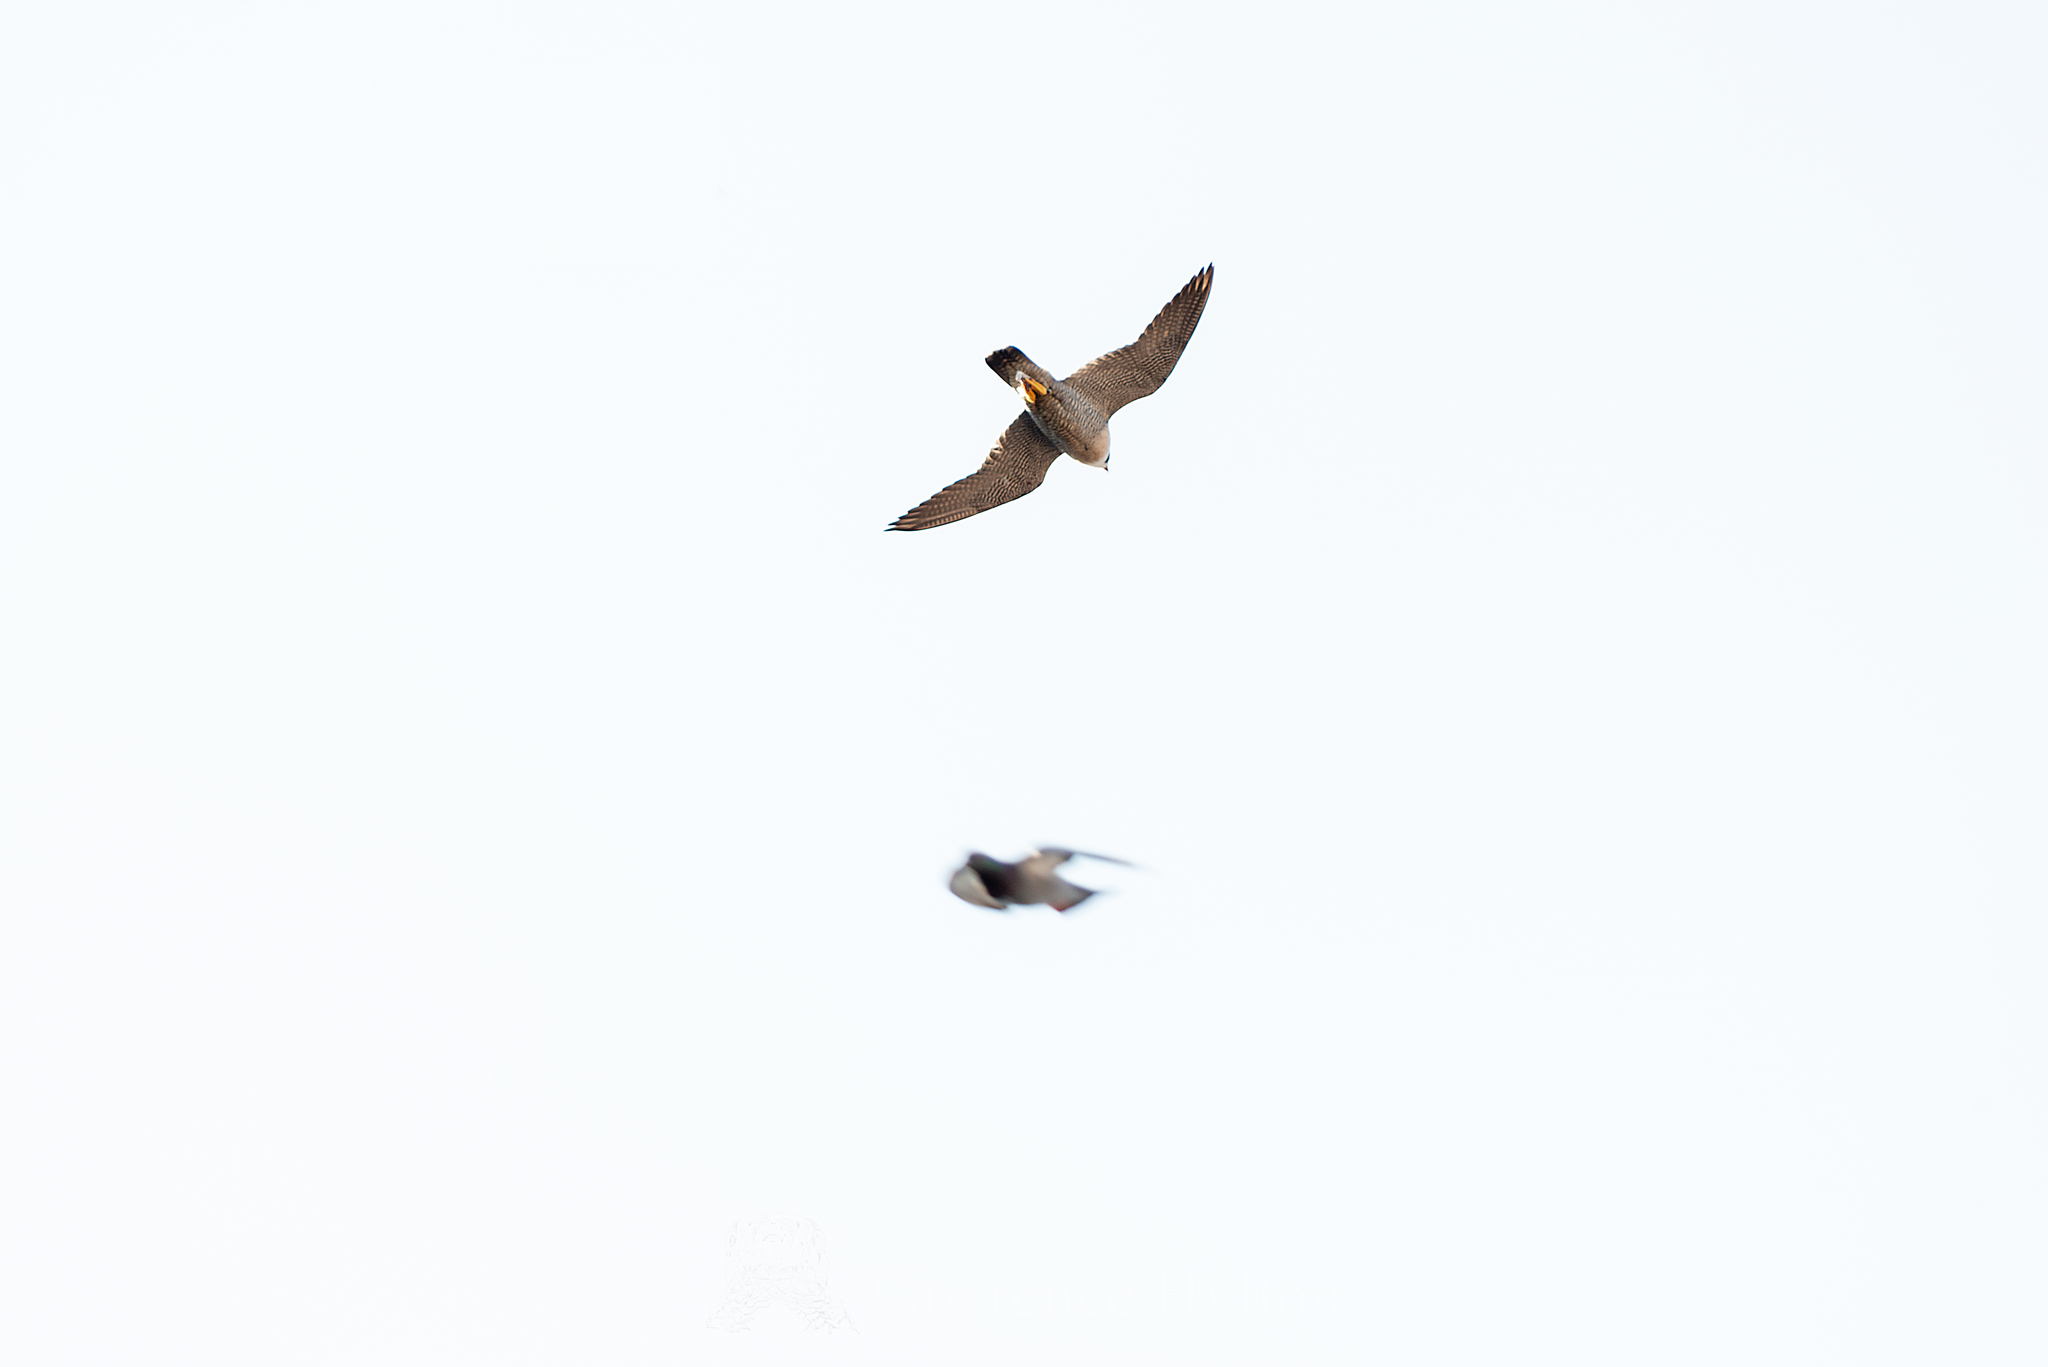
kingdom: Animalia
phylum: Chordata
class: Aves
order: Falconiformes
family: Falconidae
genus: Falco
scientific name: Falco peregrinus
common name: Peregrine falcon
